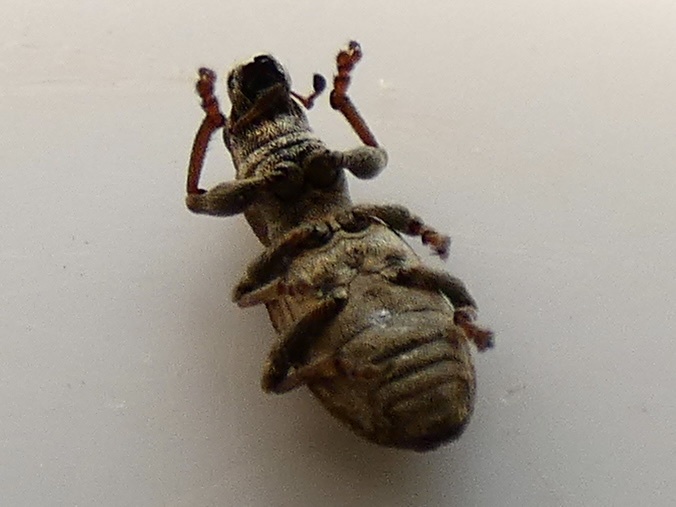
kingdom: Animalia
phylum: Arthropoda
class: Insecta
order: Coleoptera
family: Curculionidae
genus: Sitona
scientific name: Sitona obsoletus
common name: Weevil
